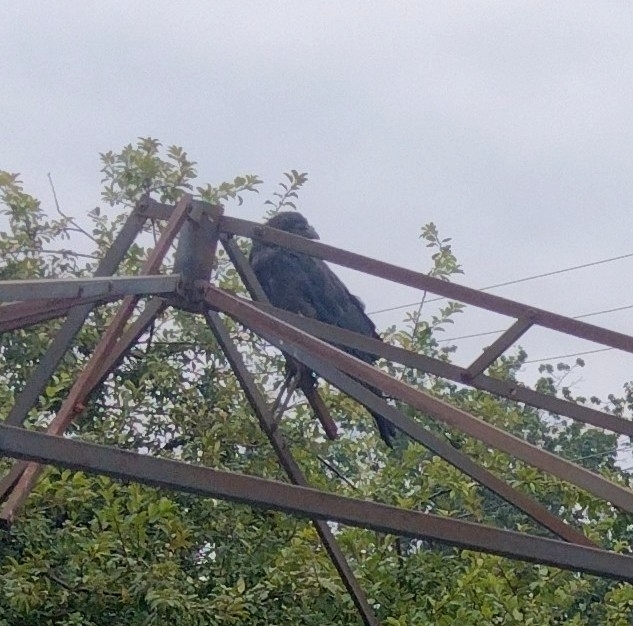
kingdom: Animalia
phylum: Chordata
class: Aves
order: Passeriformes
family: Corvidae
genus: Corvus
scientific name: Corvus brachyrhynchos
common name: American crow
